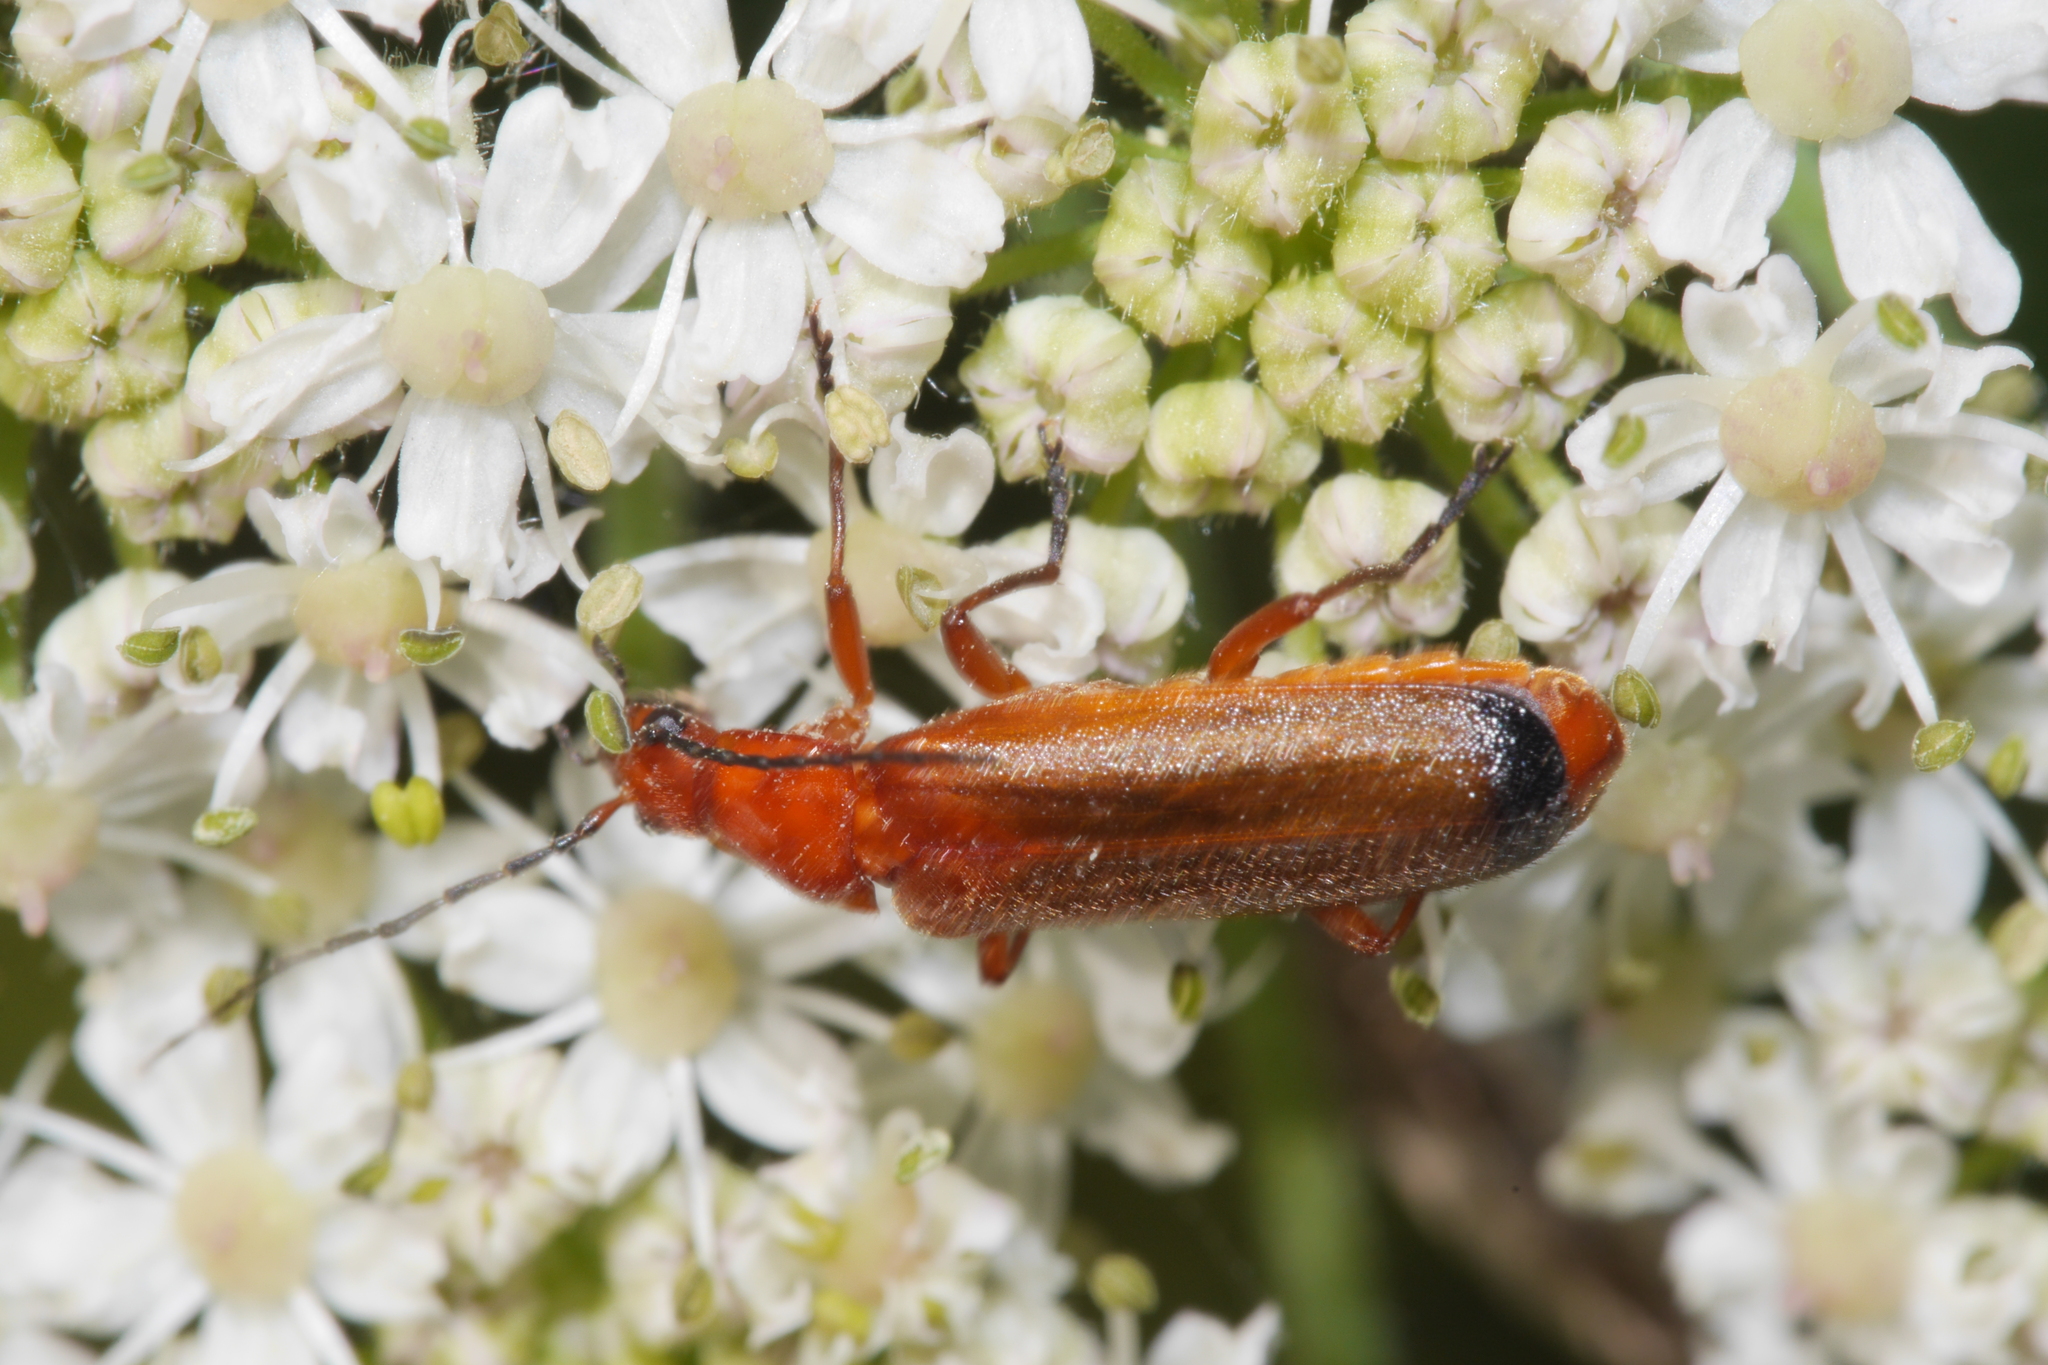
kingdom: Animalia
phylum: Arthropoda
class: Insecta
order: Coleoptera
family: Cantharidae
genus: Rhagonycha
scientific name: Rhagonycha fulva
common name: Common red soldier beetle
